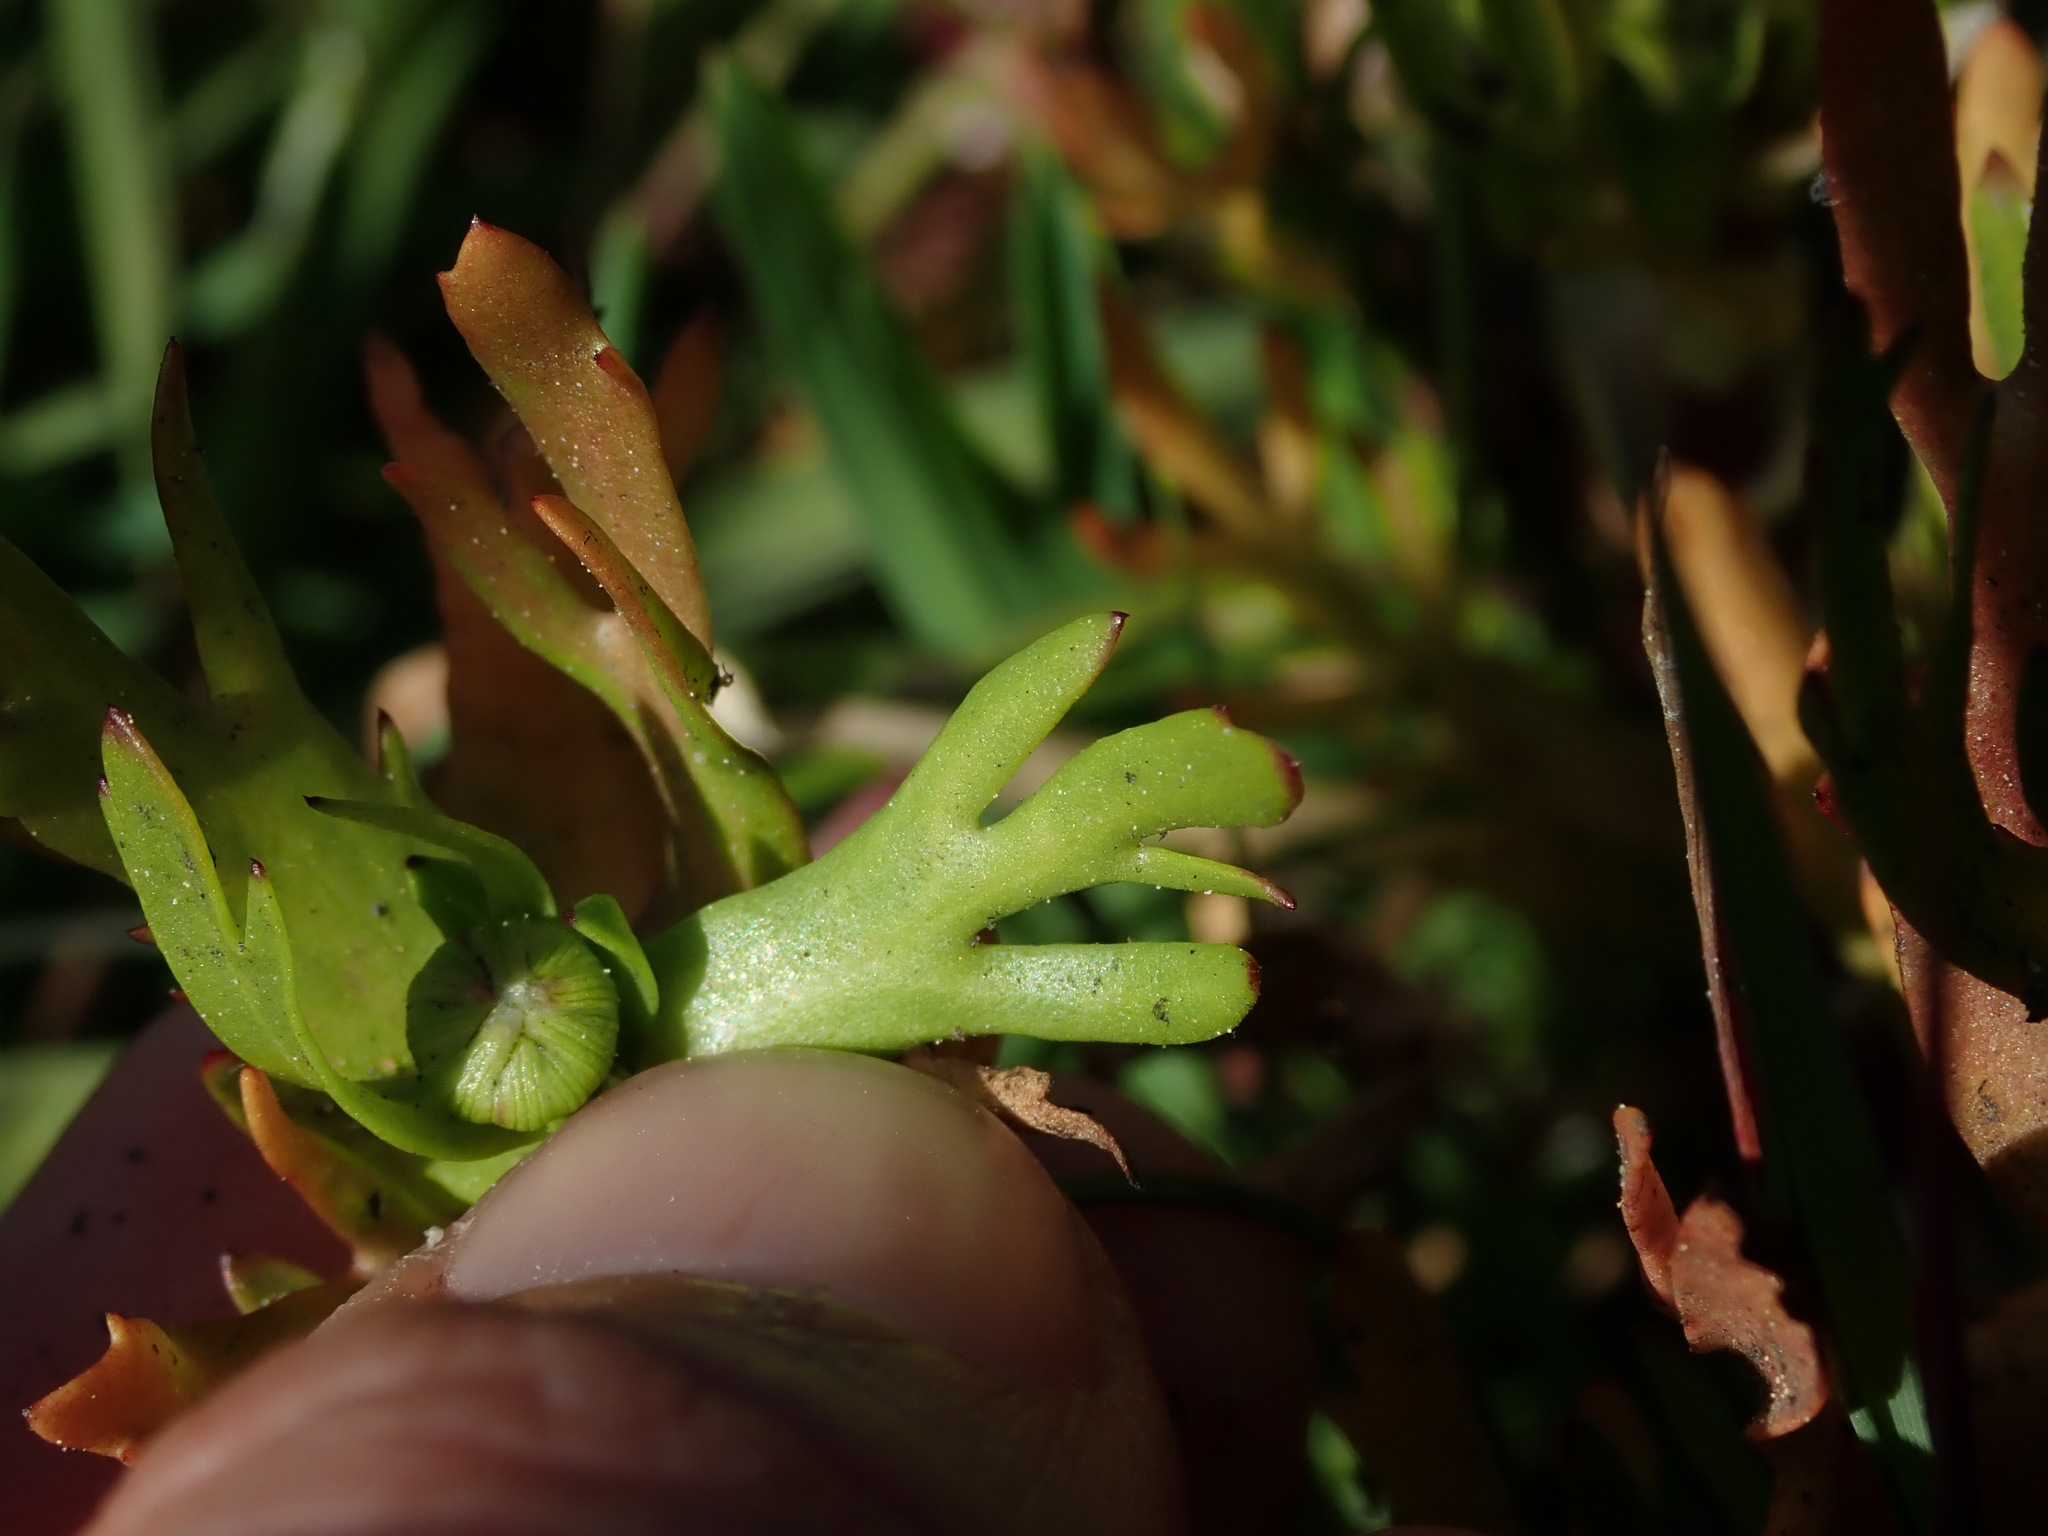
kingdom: Plantae
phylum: Tracheophyta
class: Magnoliopsida
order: Asterales
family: Asteraceae
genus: Cotula
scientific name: Cotula coronopifolia
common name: Buttonweed
